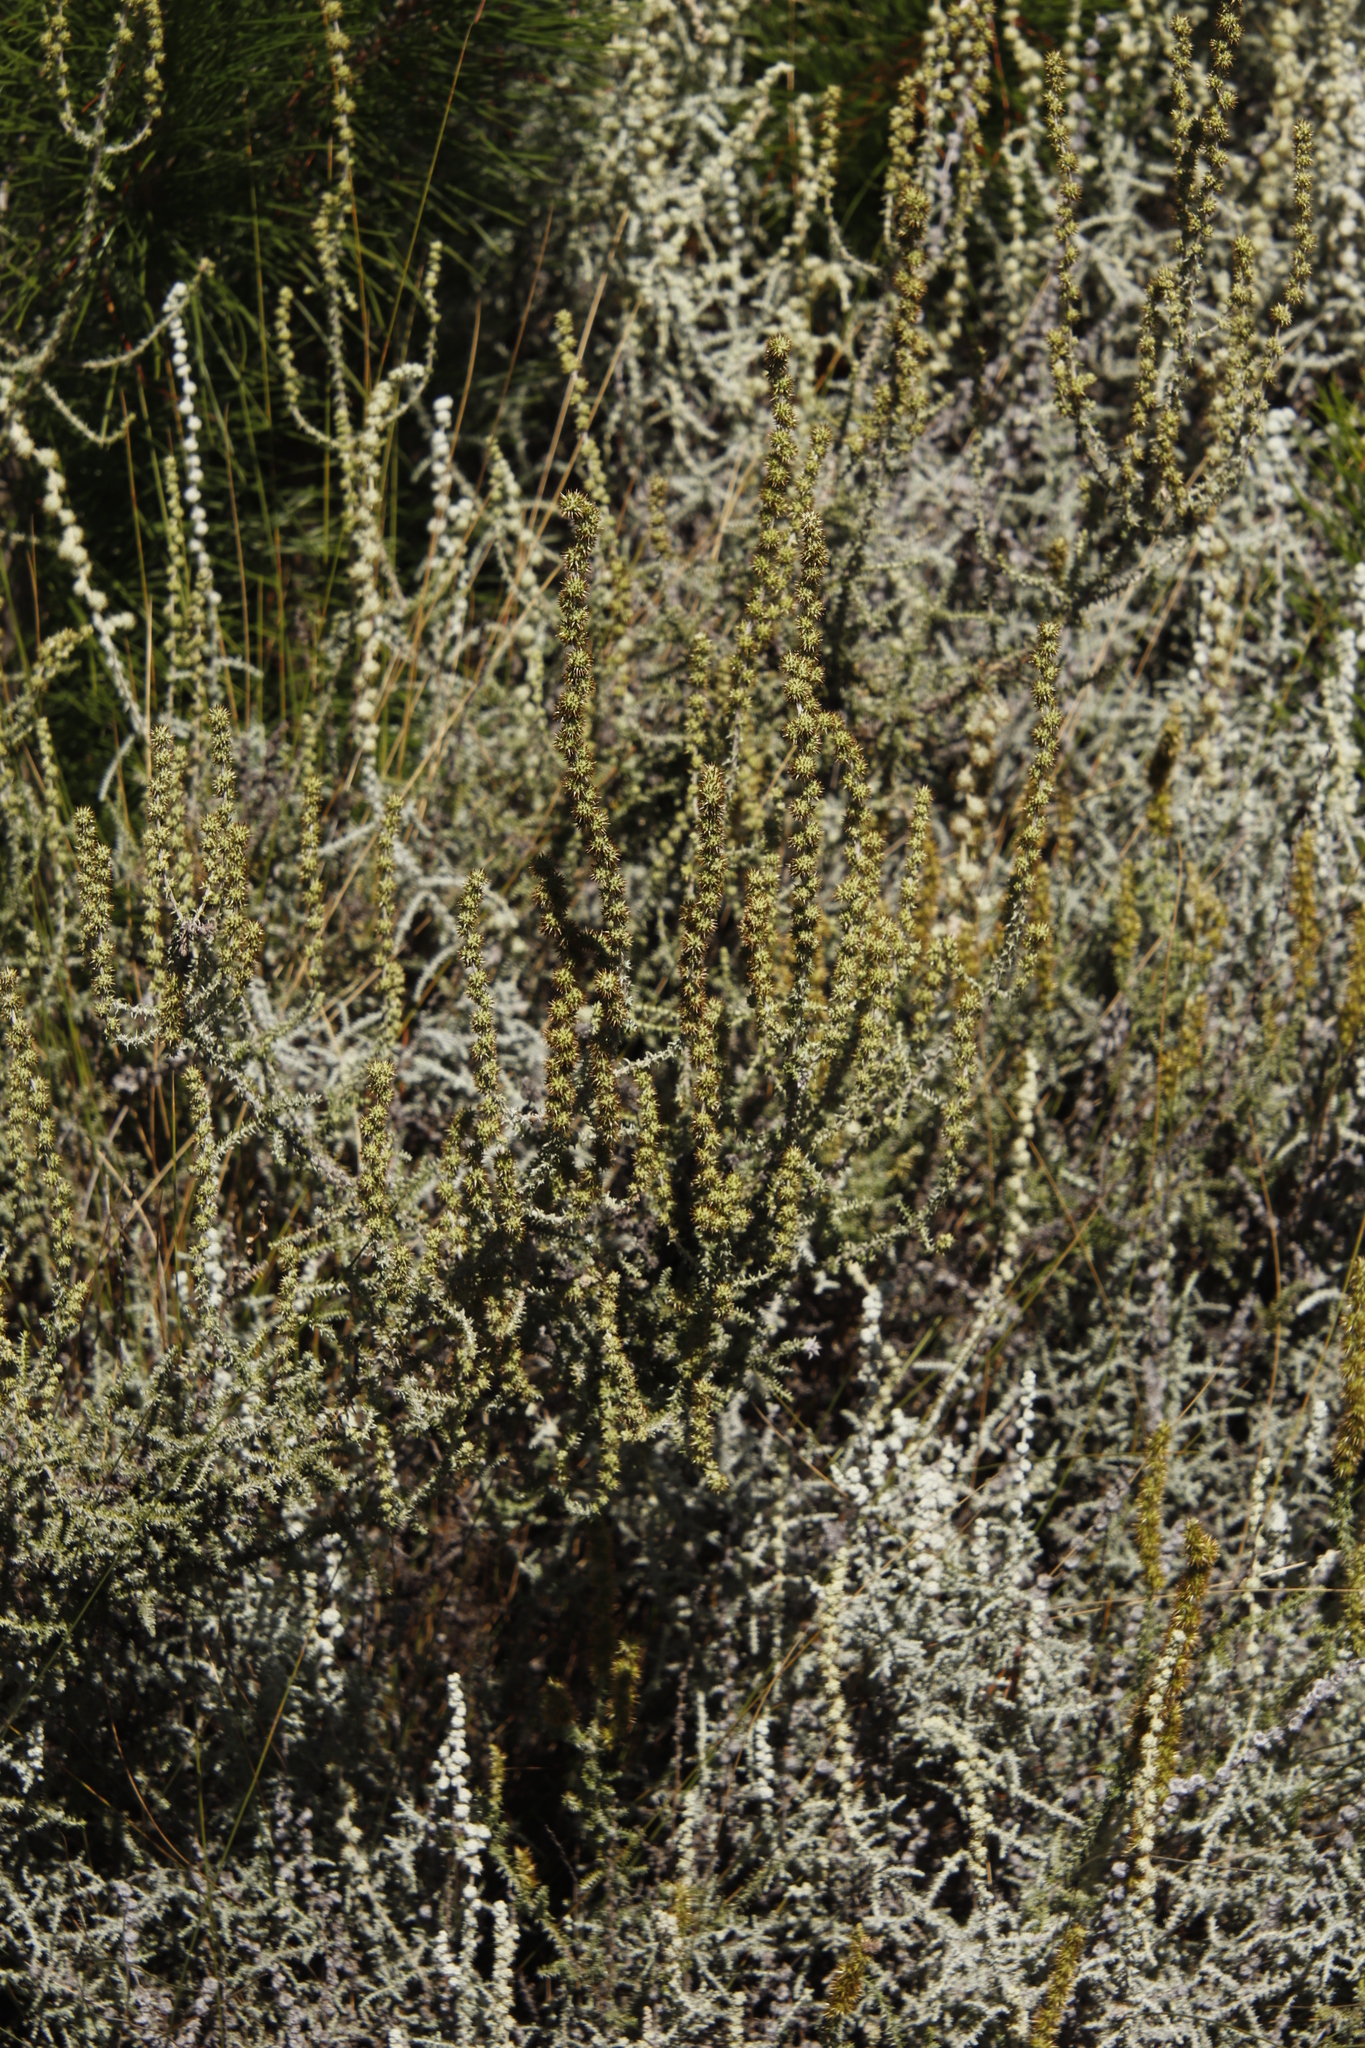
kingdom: Plantae
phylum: Tracheophyta
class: Magnoliopsida
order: Asterales
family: Asteraceae
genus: Seriphium
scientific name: Seriphium cinereum
